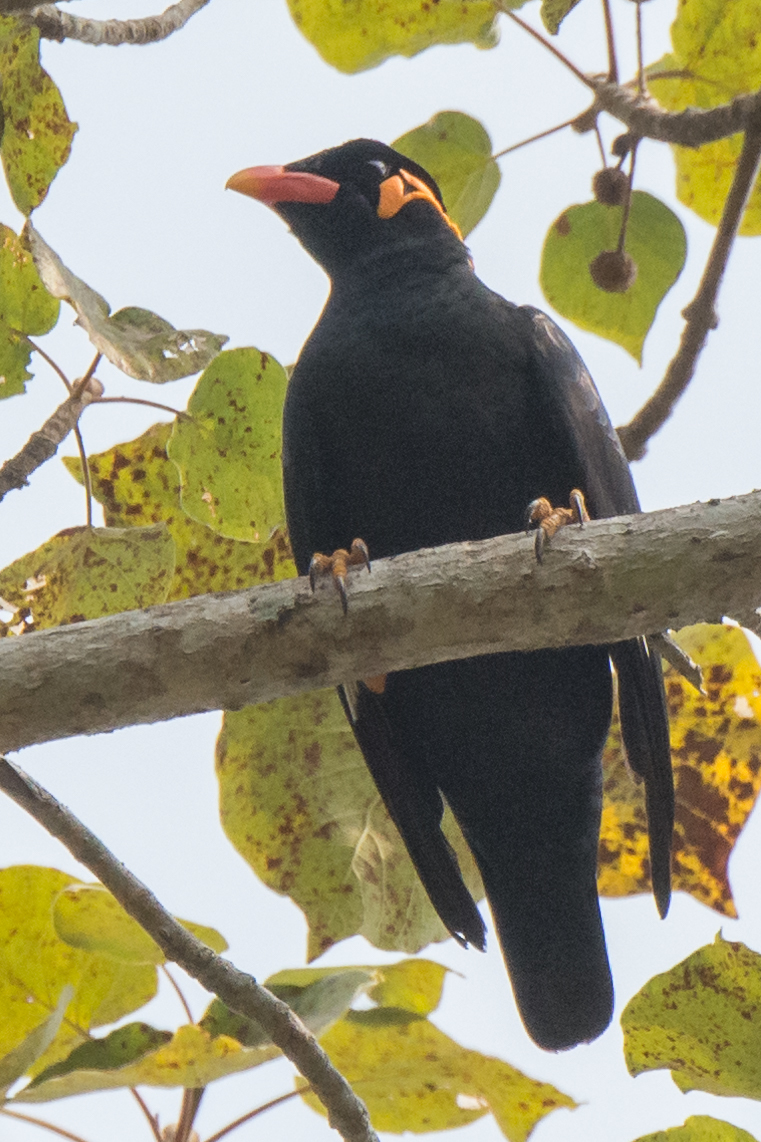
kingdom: Animalia
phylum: Chordata
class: Aves
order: Passeriformes
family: Sturnidae
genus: Gracula
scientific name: Gracula religiosa
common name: Common hill myna
